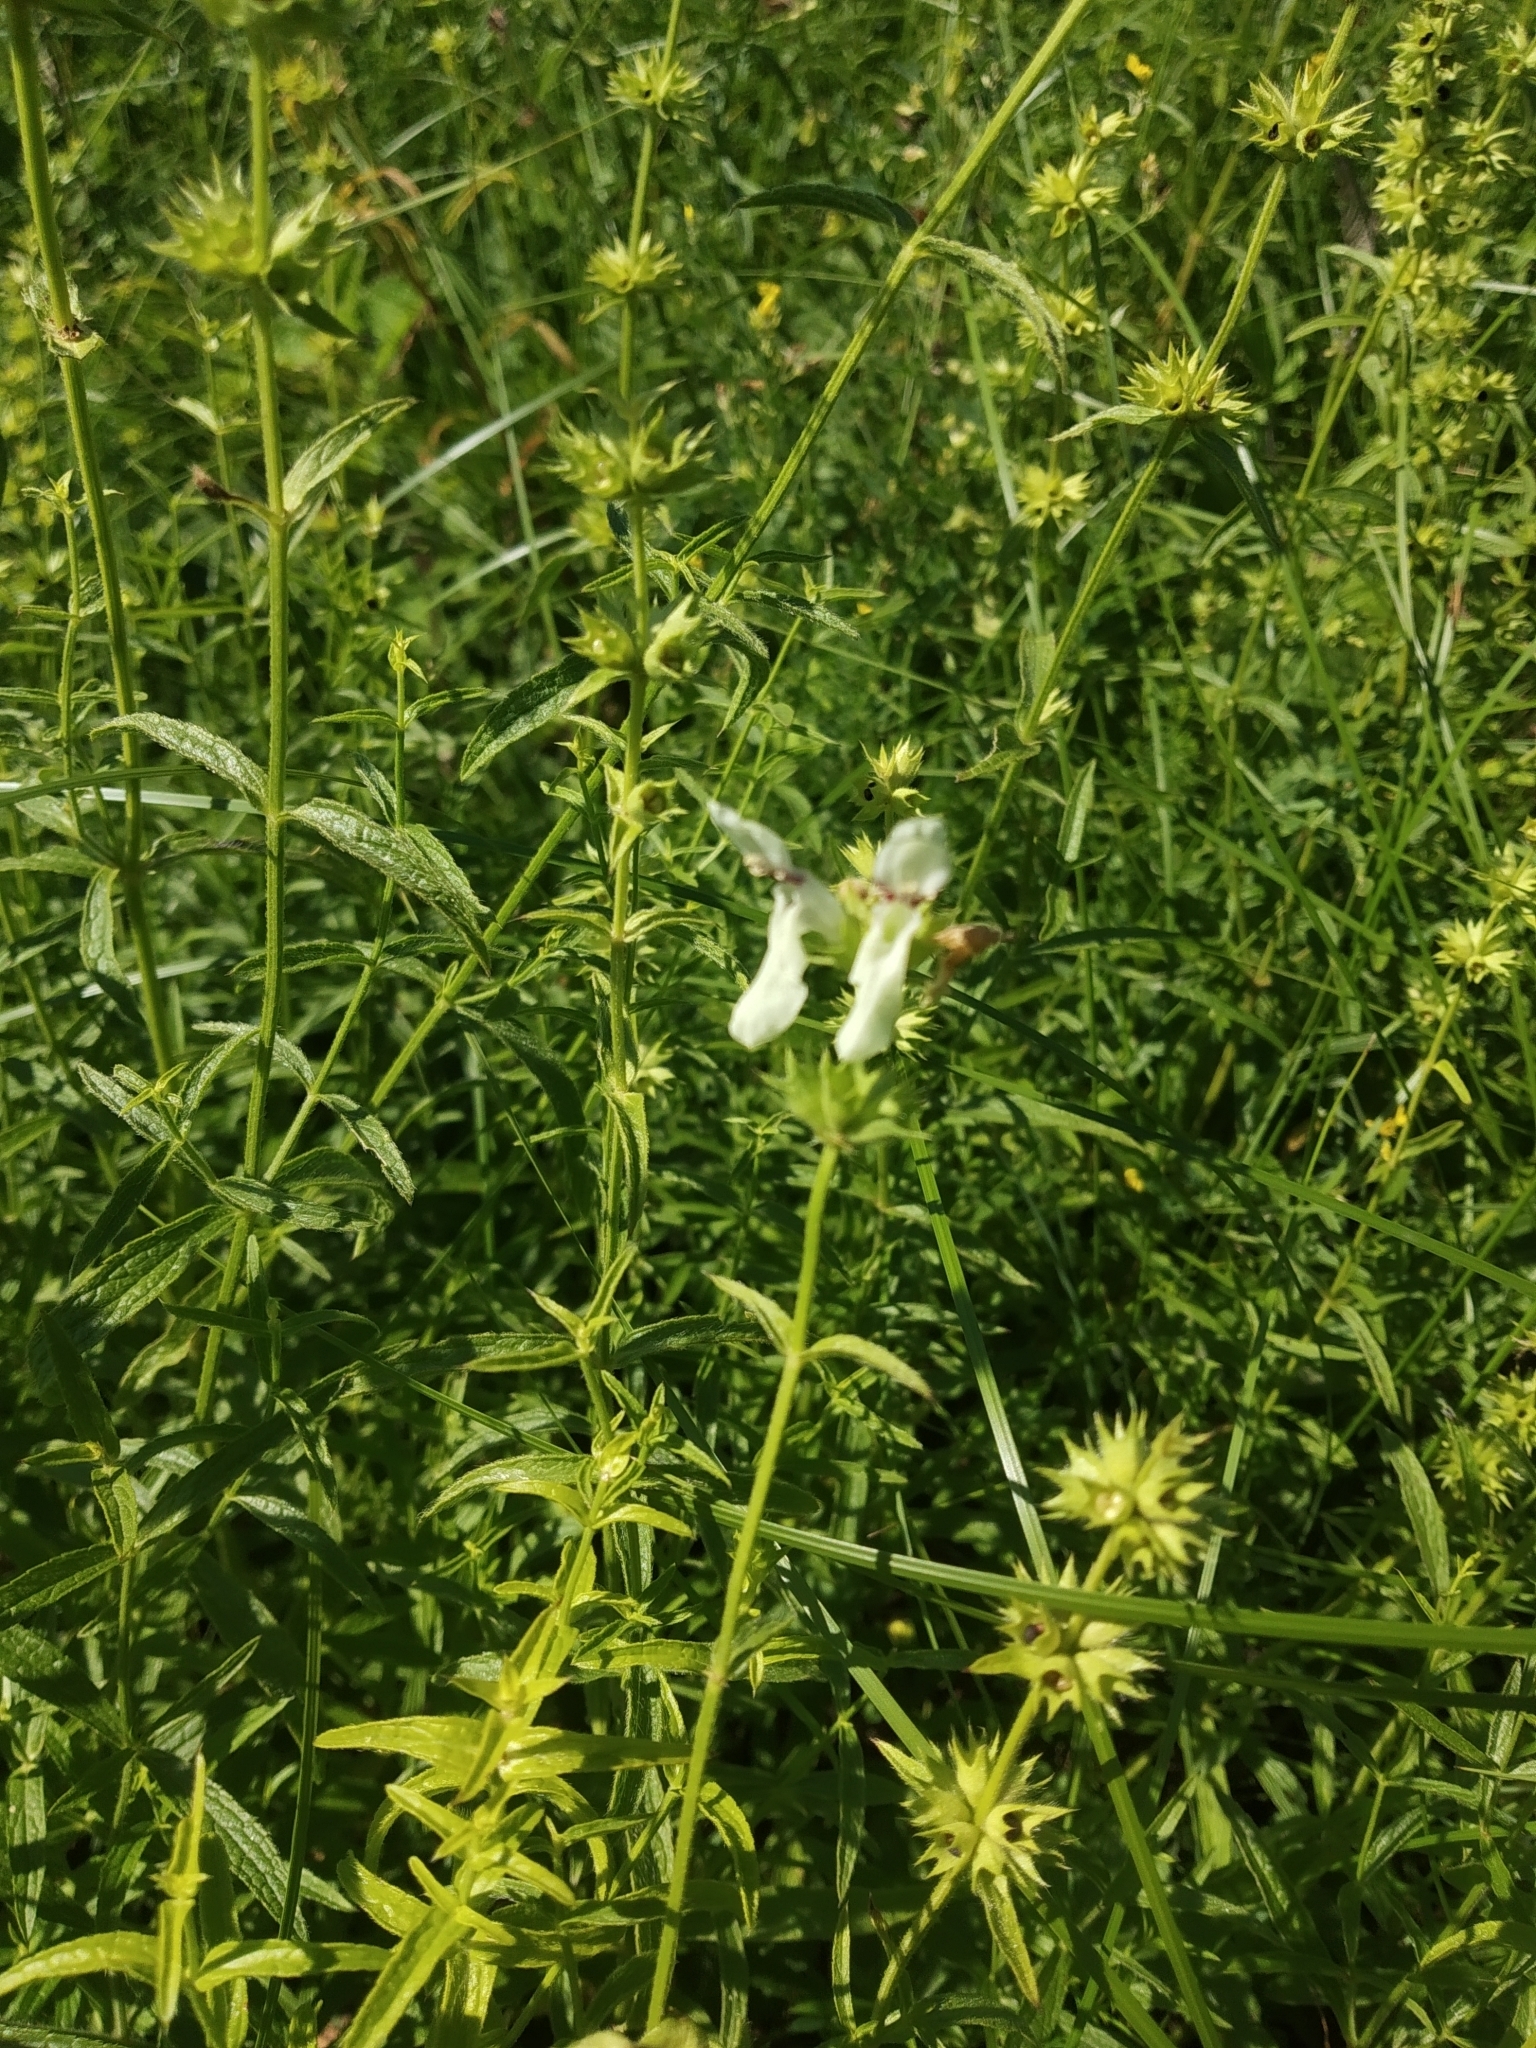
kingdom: Plantae
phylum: Tracheophyta
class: Magnoliopsida
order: Lamiales
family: Lamiaceae
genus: Stachys
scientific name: Stachys recta
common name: Perennial yellow-woundwort
